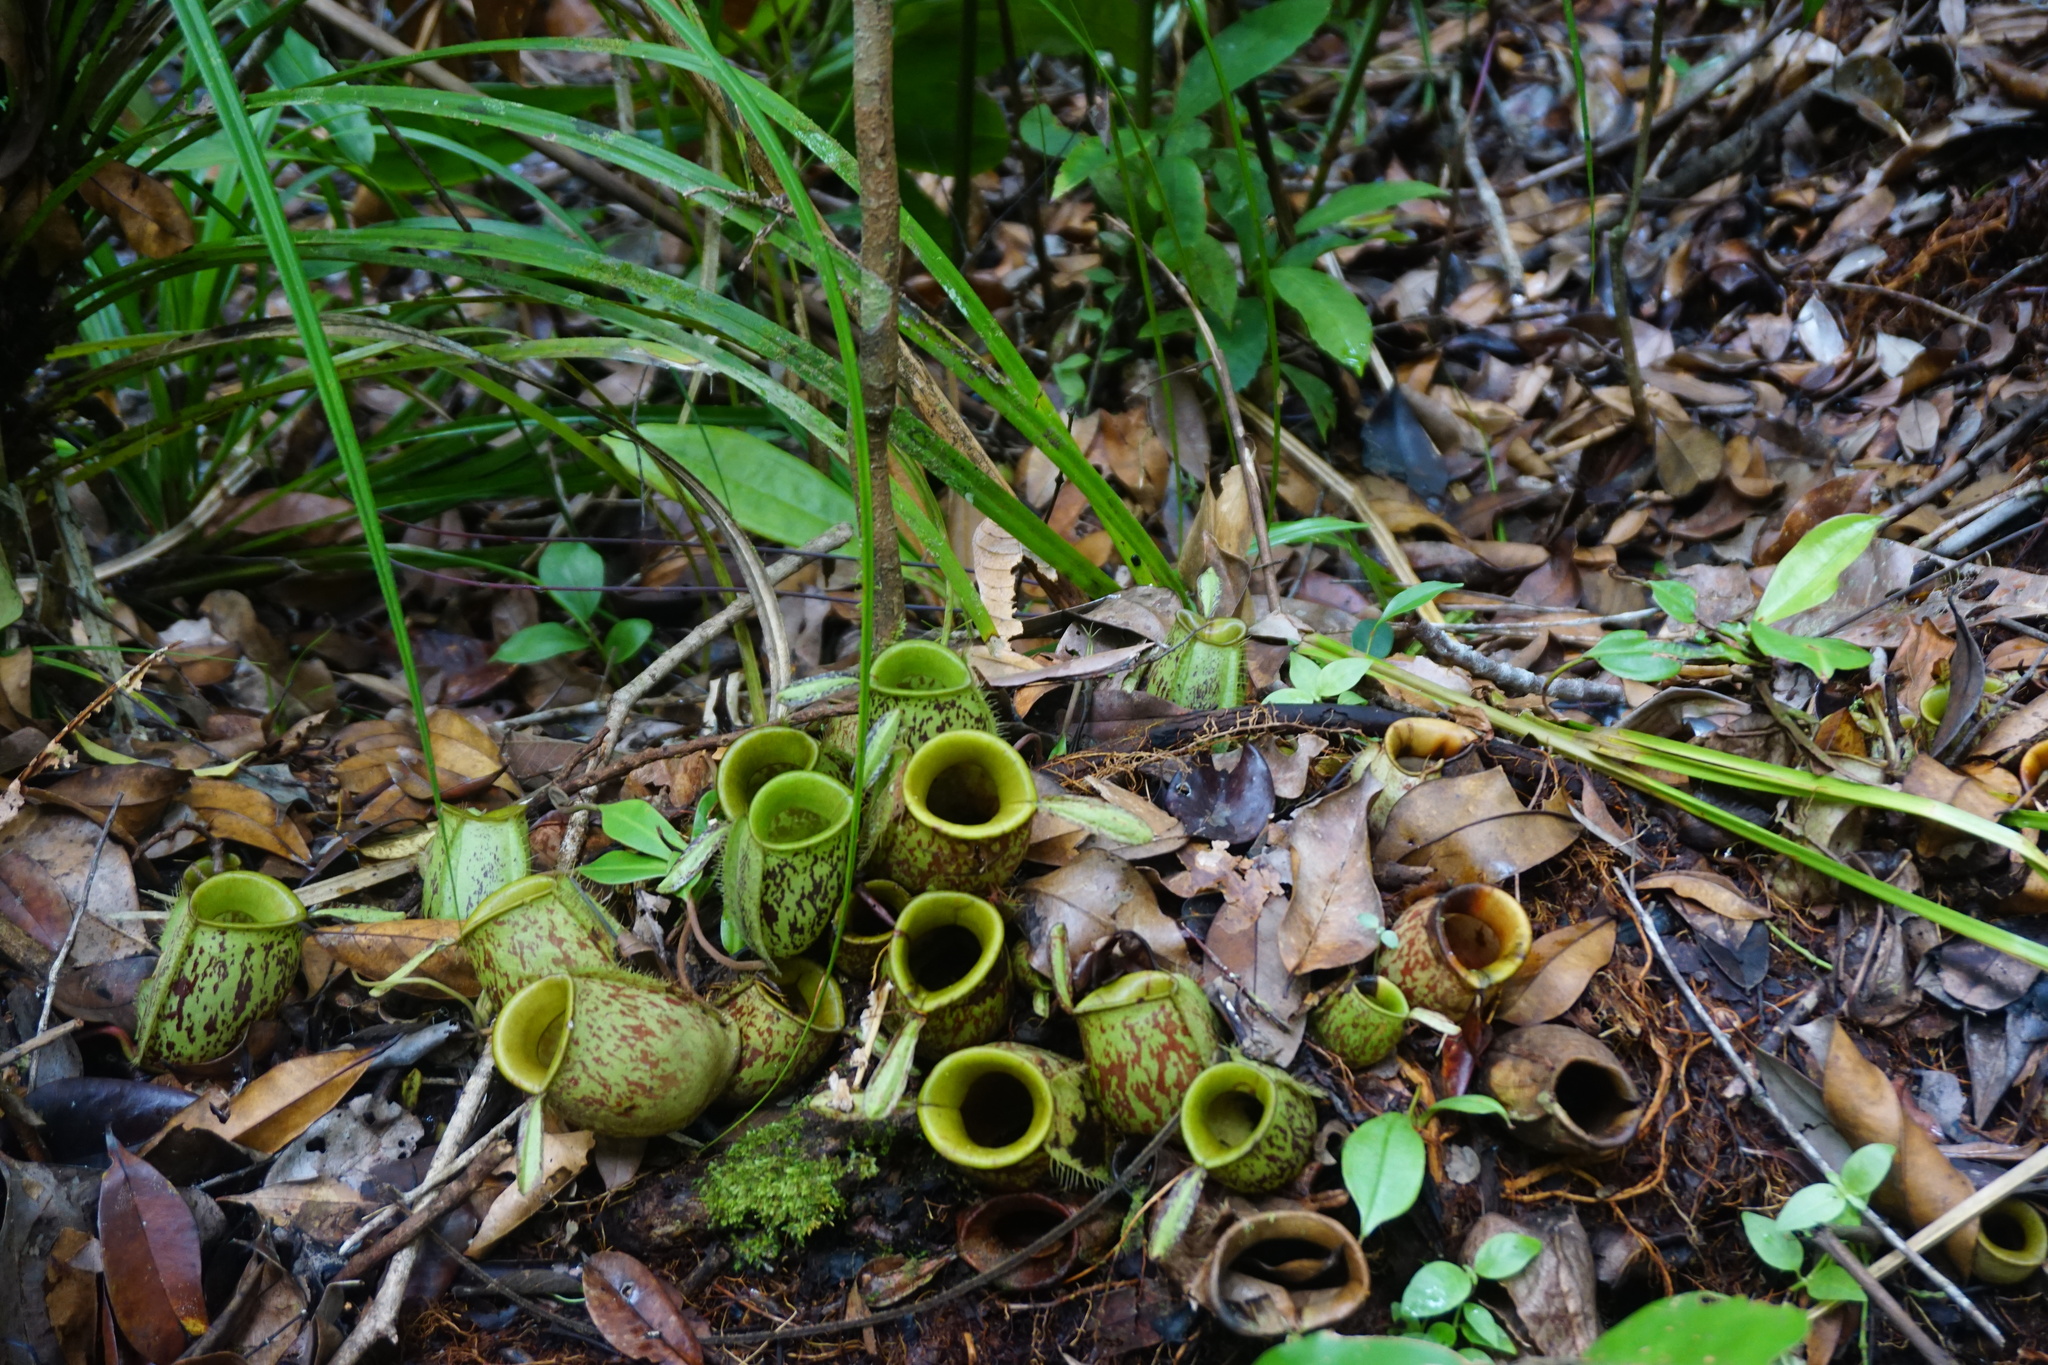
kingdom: Plantae
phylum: Tracheophyta
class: Magnoliopsida
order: Caryophyllales
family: Nepenthaceae
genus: Nepenthes
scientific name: Nepenthes ampullaria
